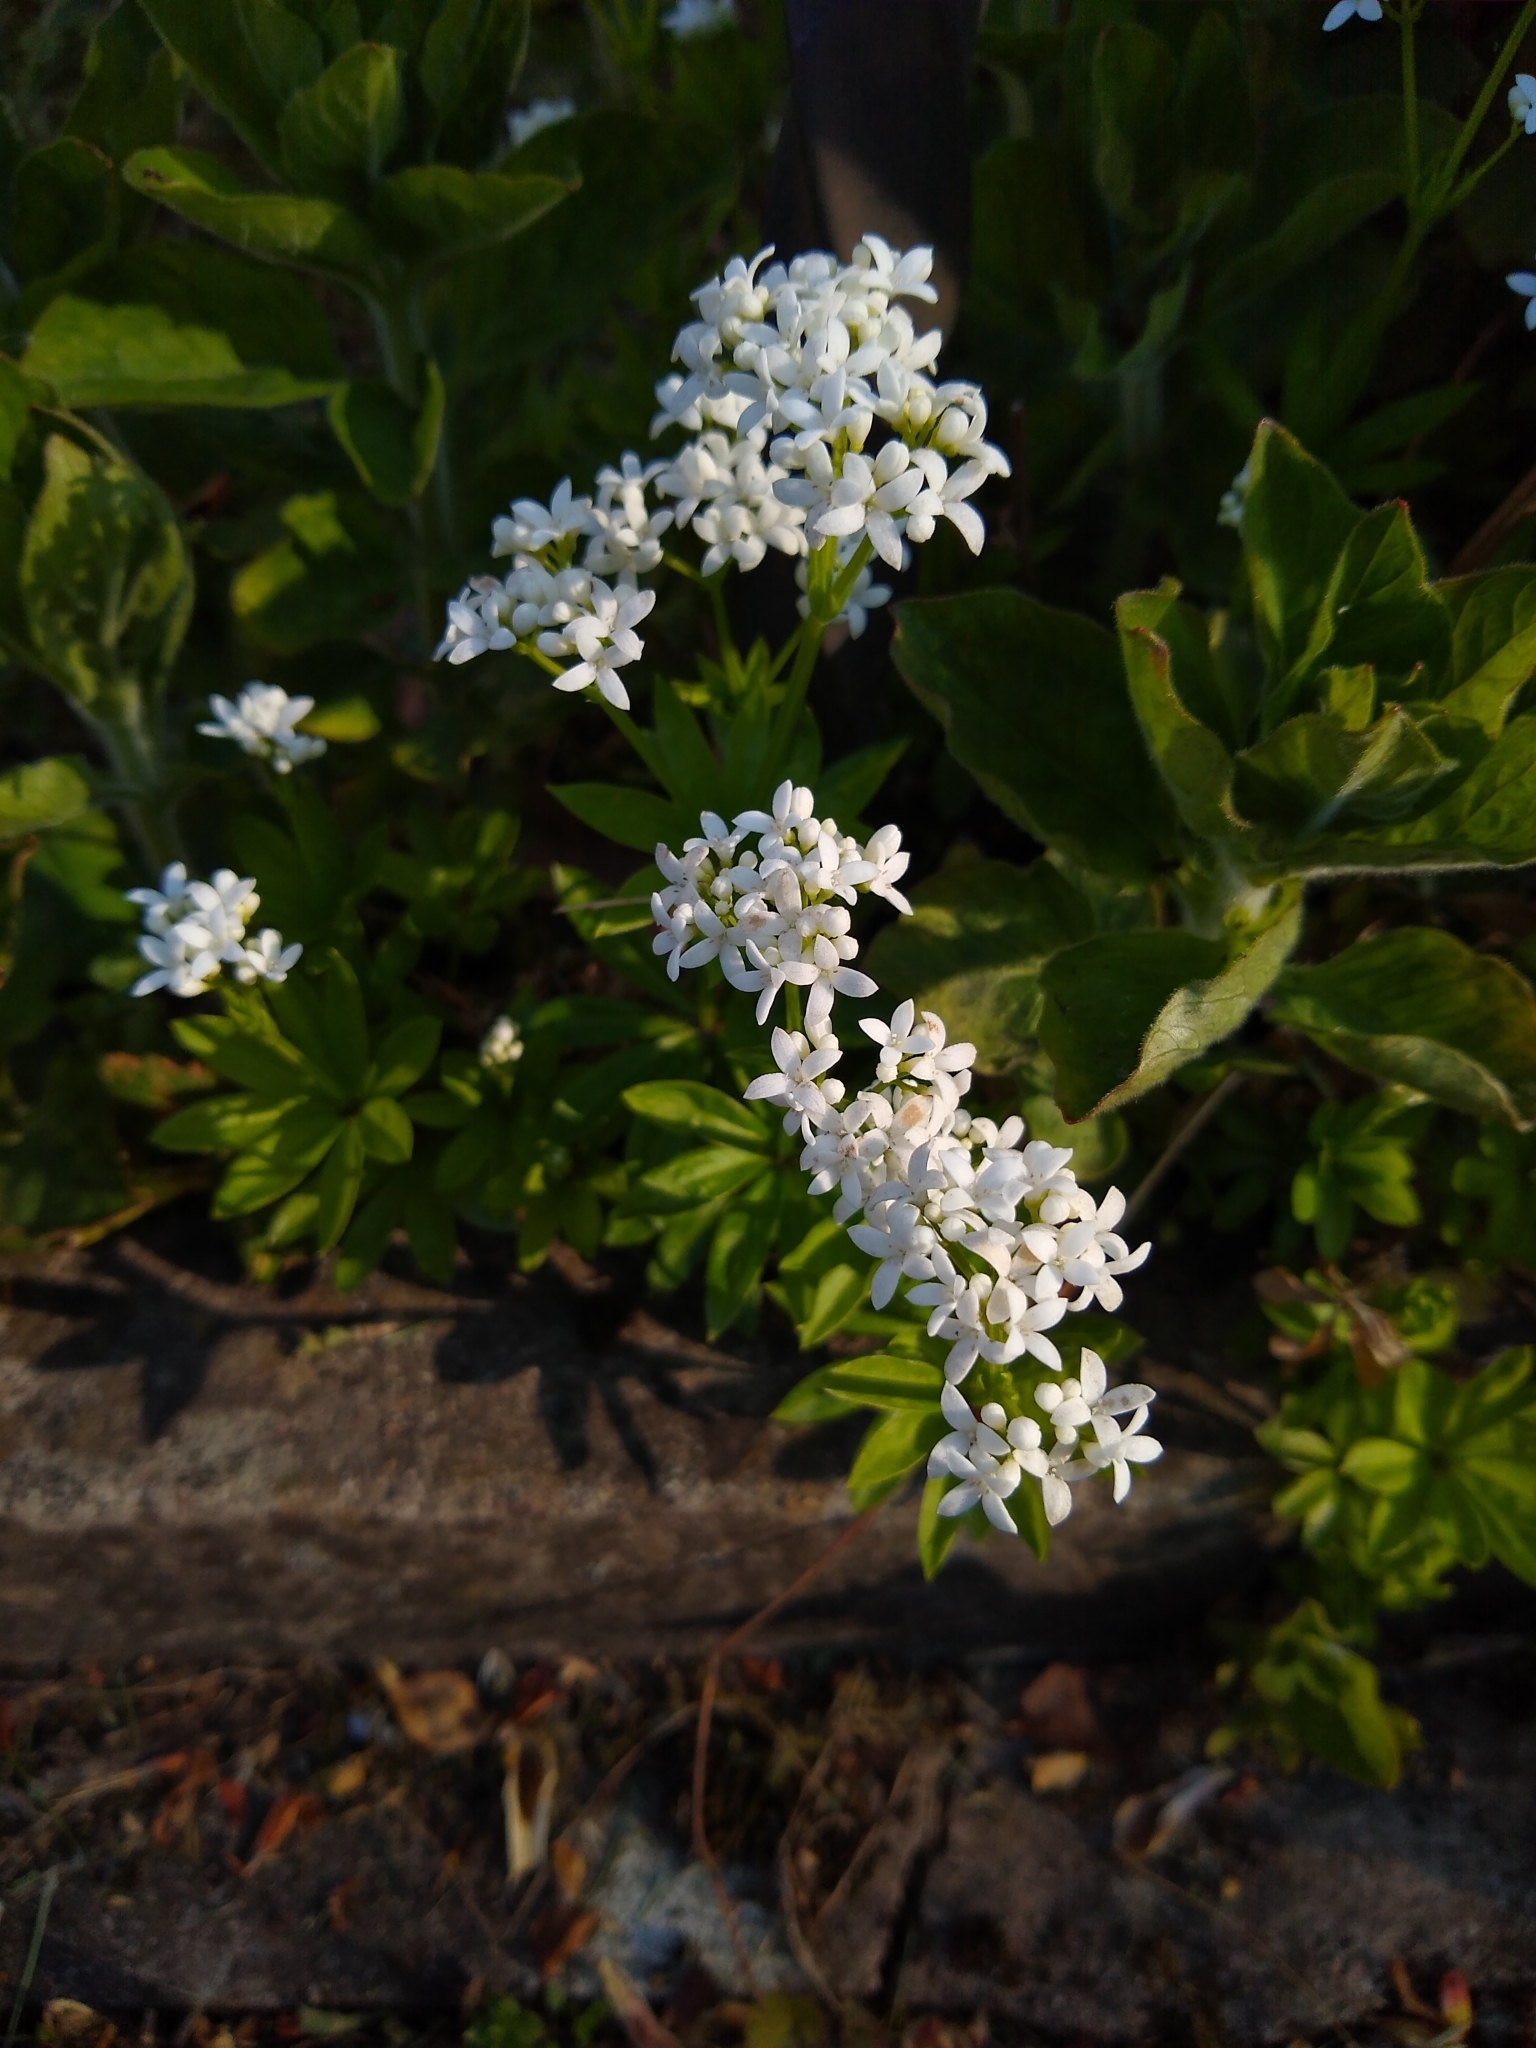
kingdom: Plantae
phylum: Tracheophyta
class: Magnoliopsida
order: Gentianales
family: Rubiaceae
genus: Galium
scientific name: Galium odoratum
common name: Sweet woodruff
